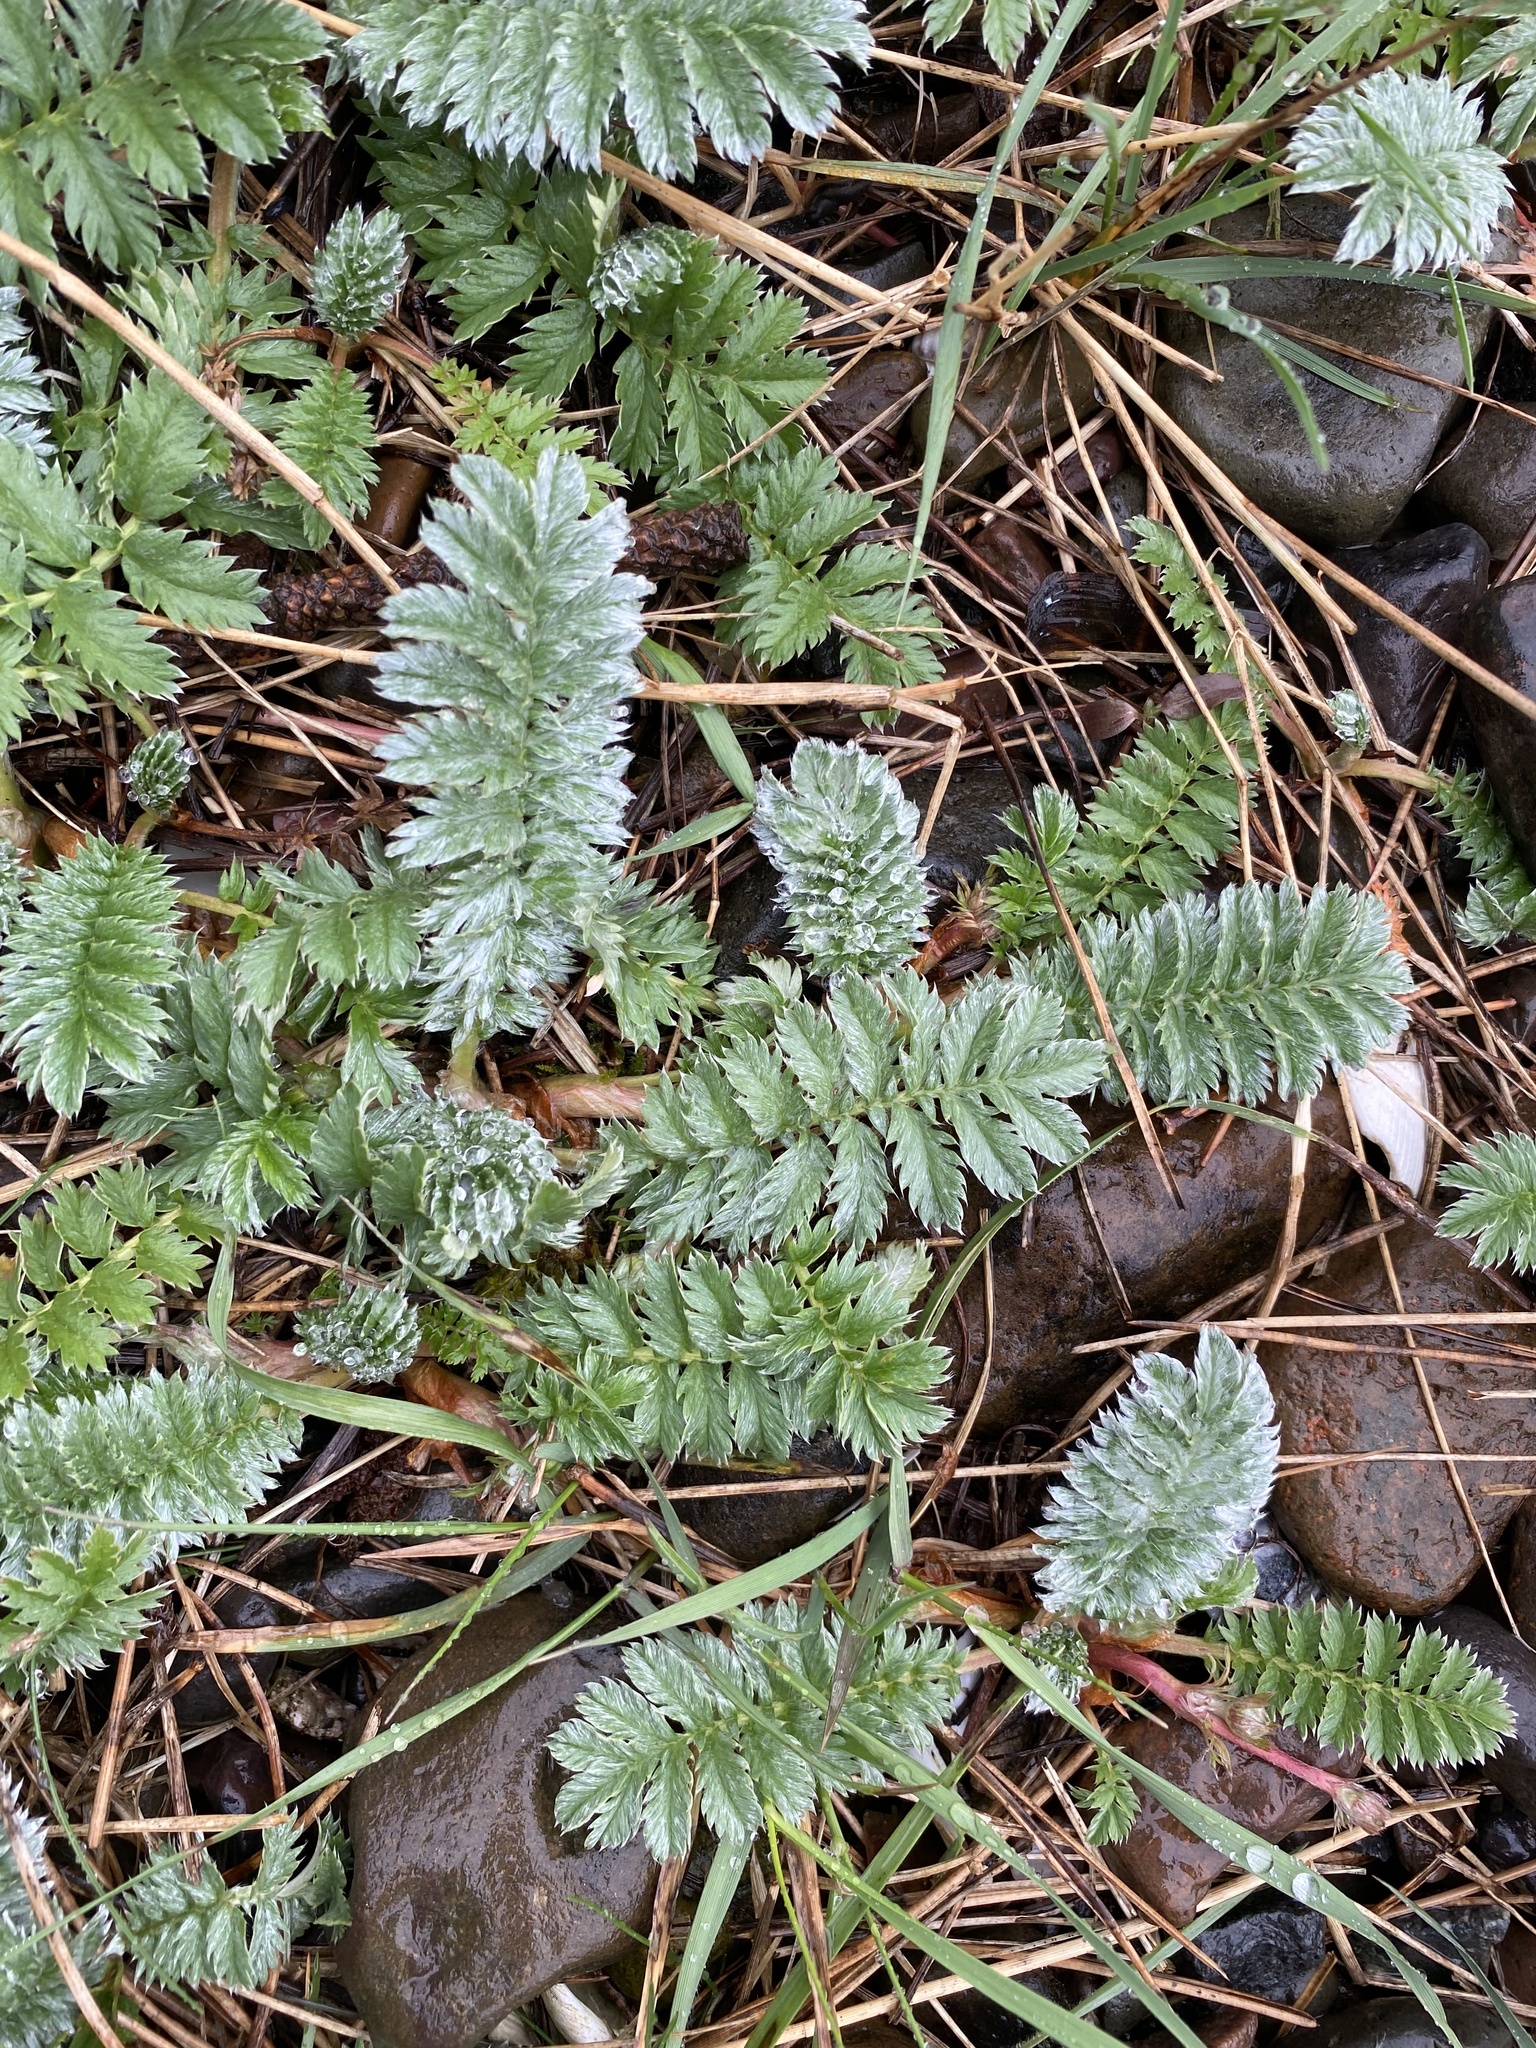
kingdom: Plantae
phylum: Tracheophyta
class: Magnoliopsida
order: Rosales
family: Rosaceae
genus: Argentina
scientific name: Argentina anserina
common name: Common silverweed
